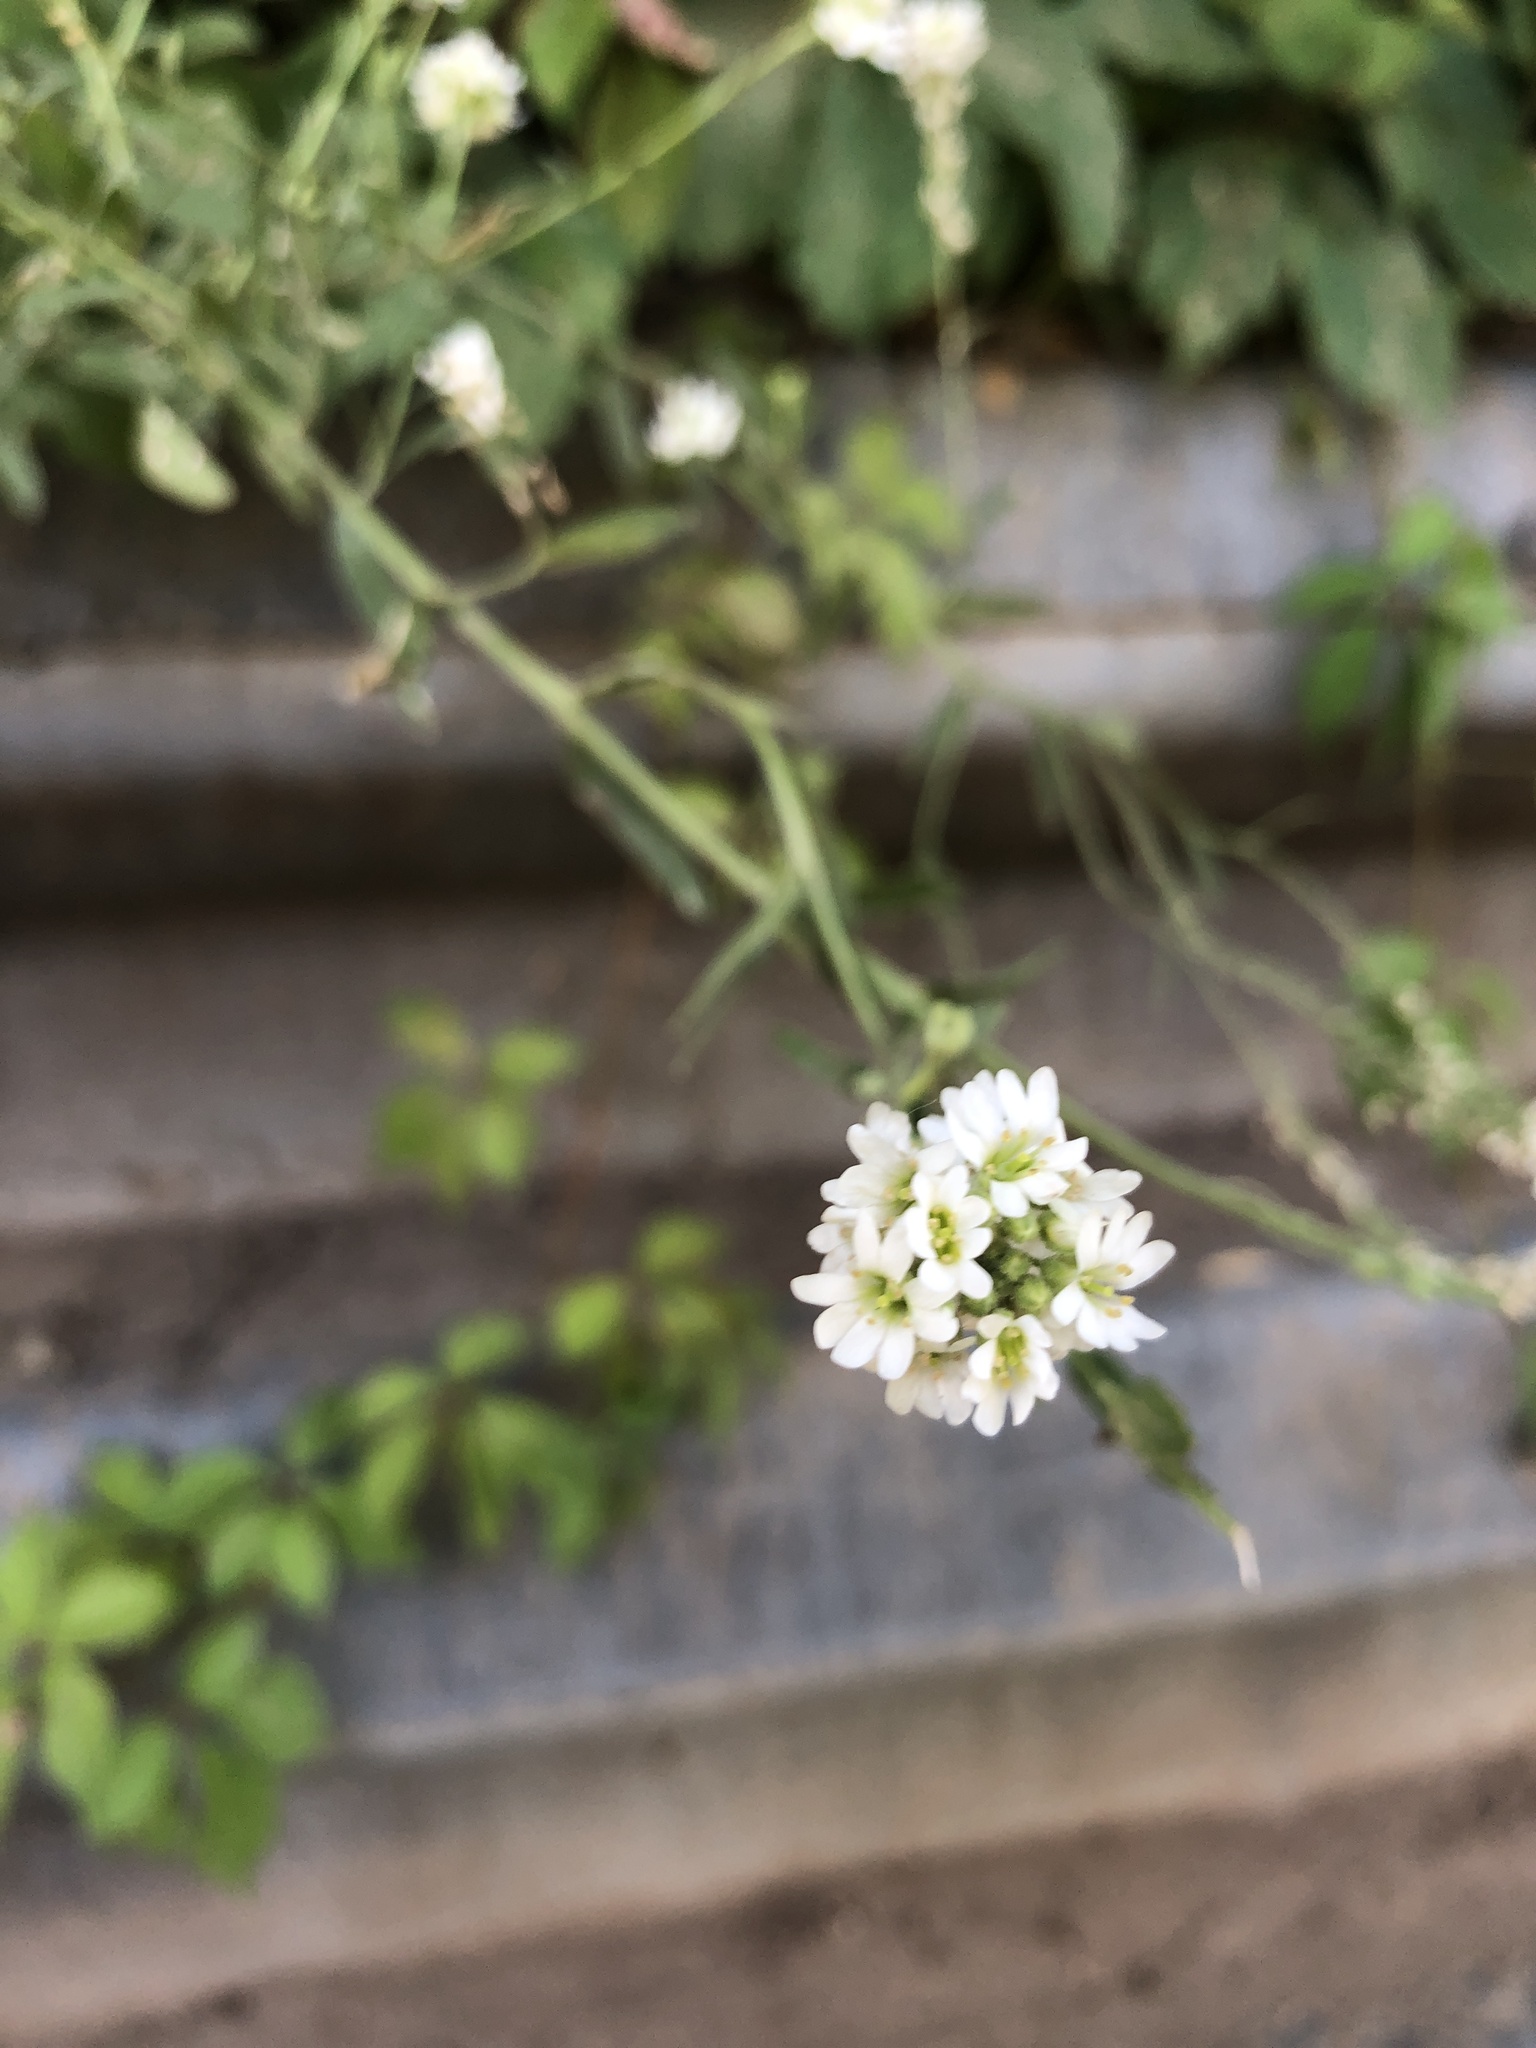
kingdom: Plantae
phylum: Tracheophyta
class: Magnoliopsida
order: Brassicales
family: Brassicaceae
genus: Berteroa
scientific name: Berteroa incana
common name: Hoary alison
